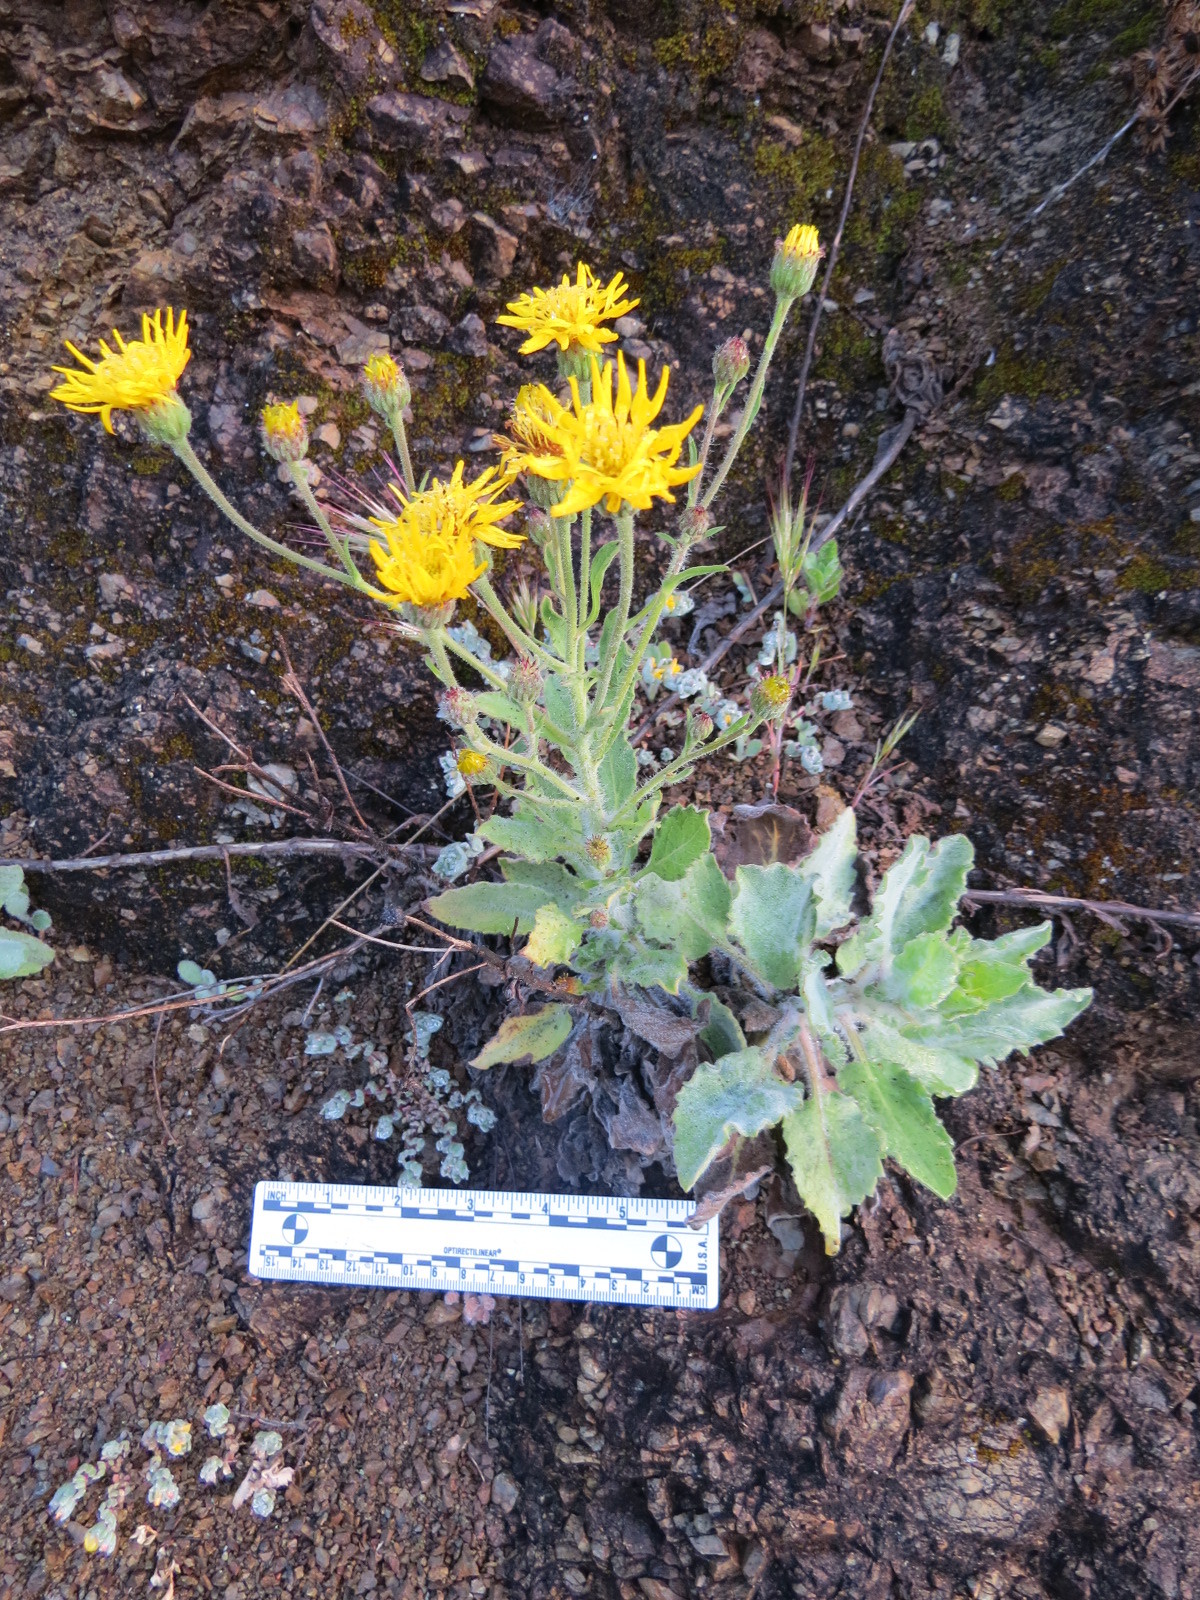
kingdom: Plantae
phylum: Tracheophyta
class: Magnoliopsida
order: Asterales
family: Asteraceae
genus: Heterotheca
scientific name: Heterotheca grandiflora
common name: Telegraphweed
